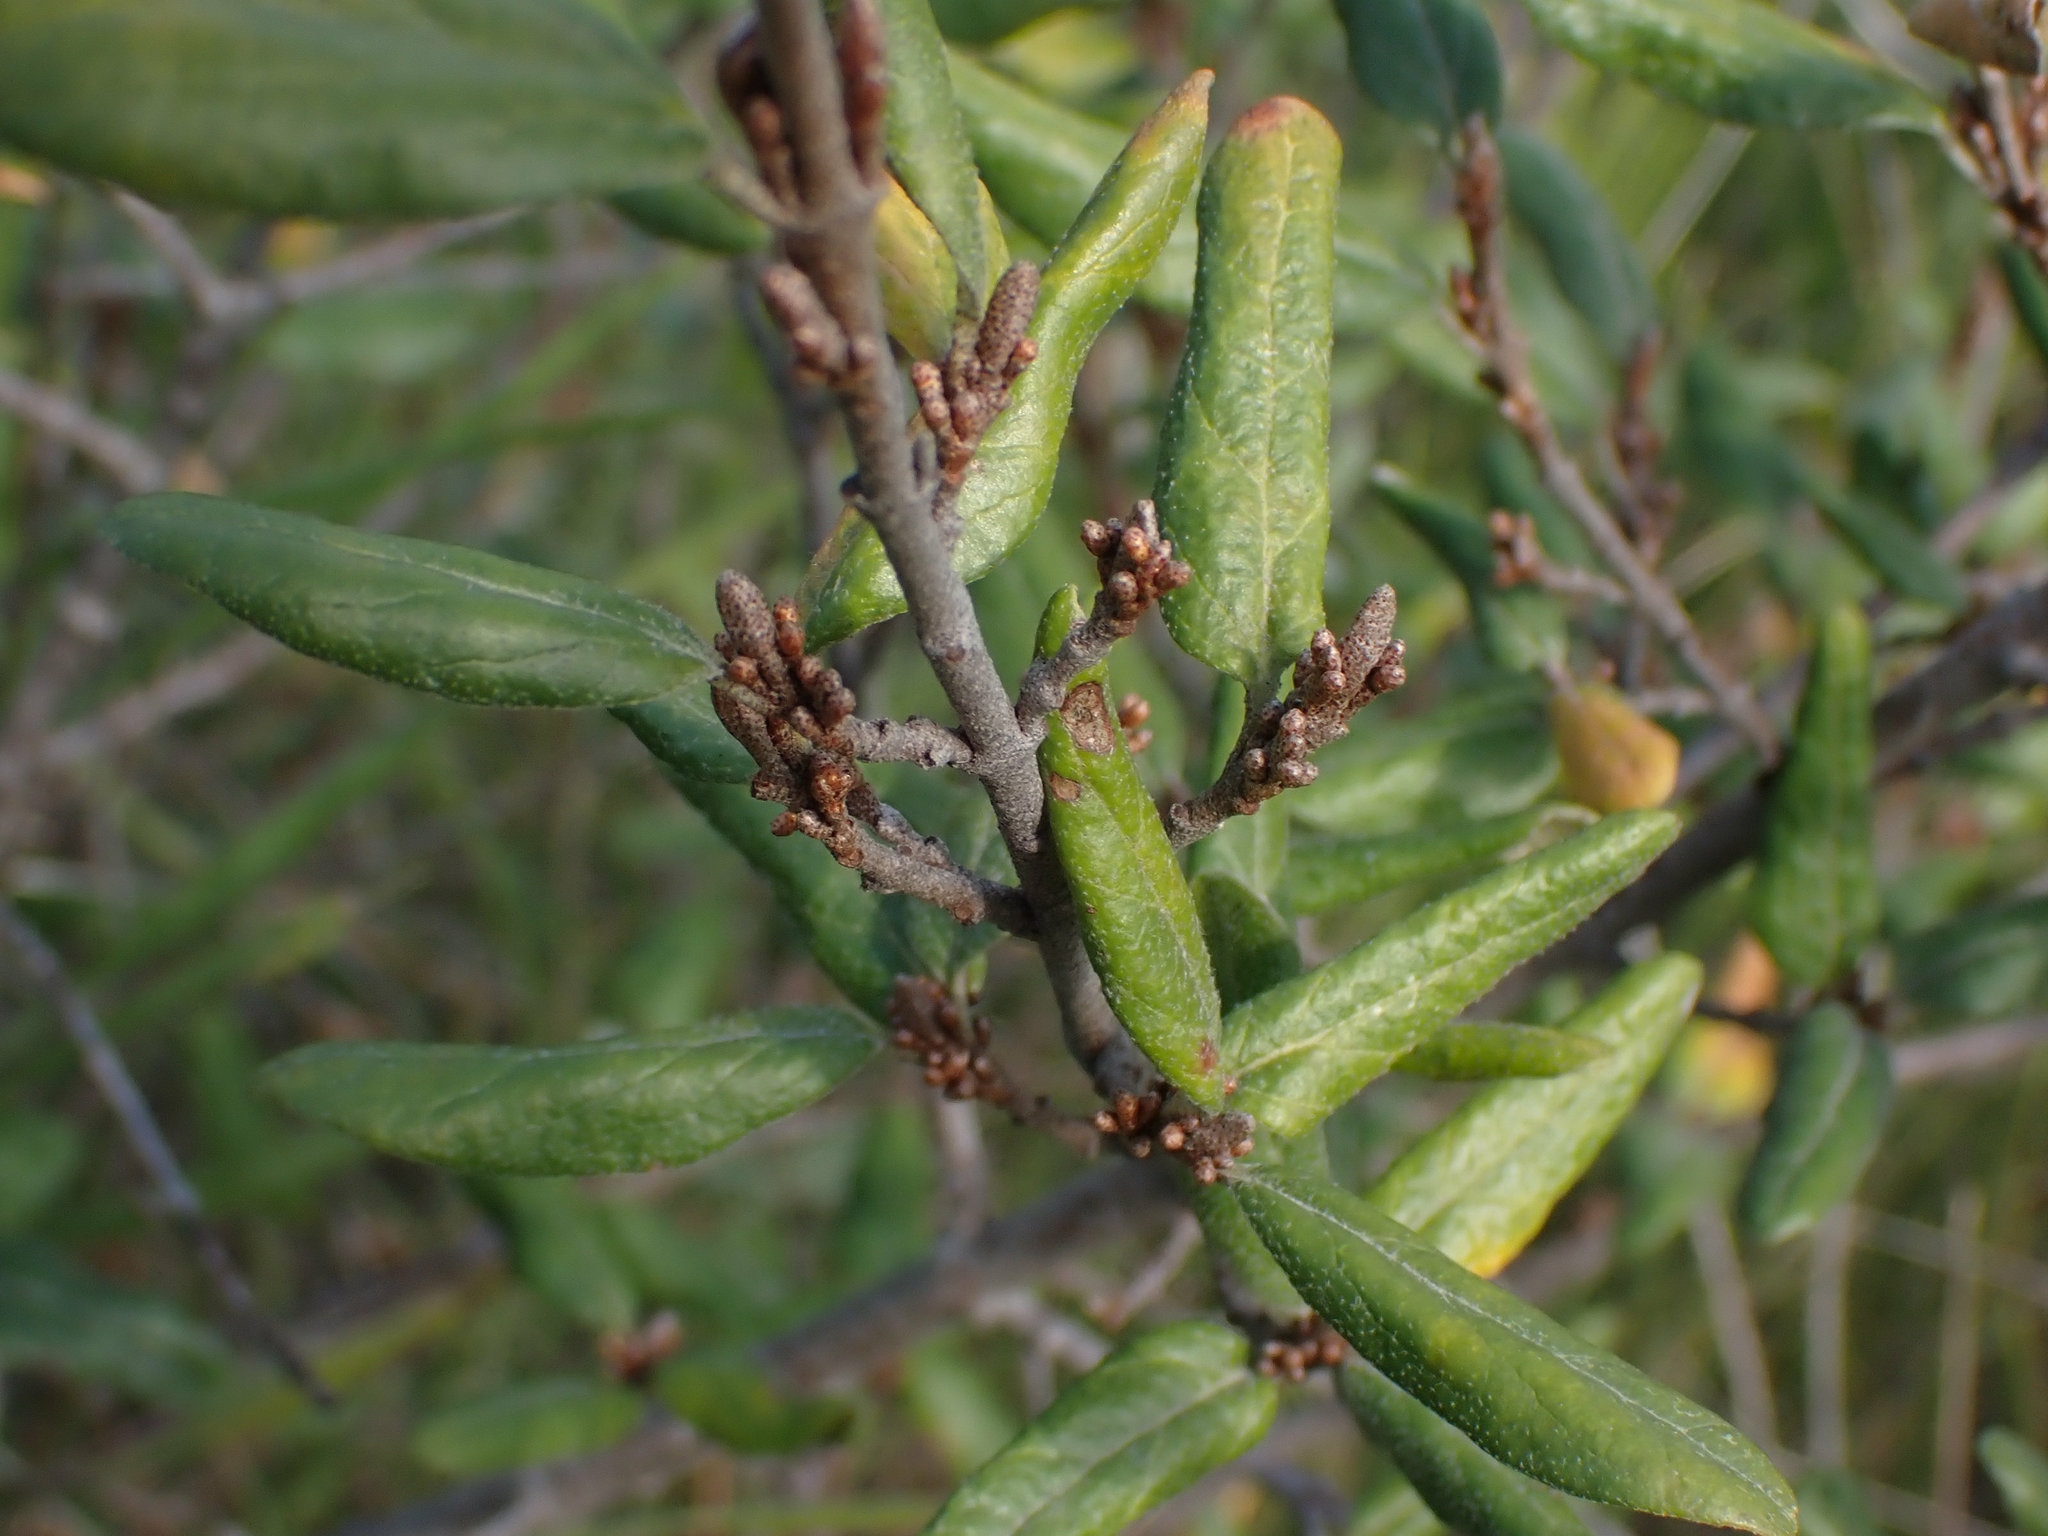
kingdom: Plantae
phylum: Tracheophyta
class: Magnoliopsida
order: Rosales
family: Elaeagnaceae
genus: Shepherdia
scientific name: Shepherdia canadensis
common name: Soapberry
